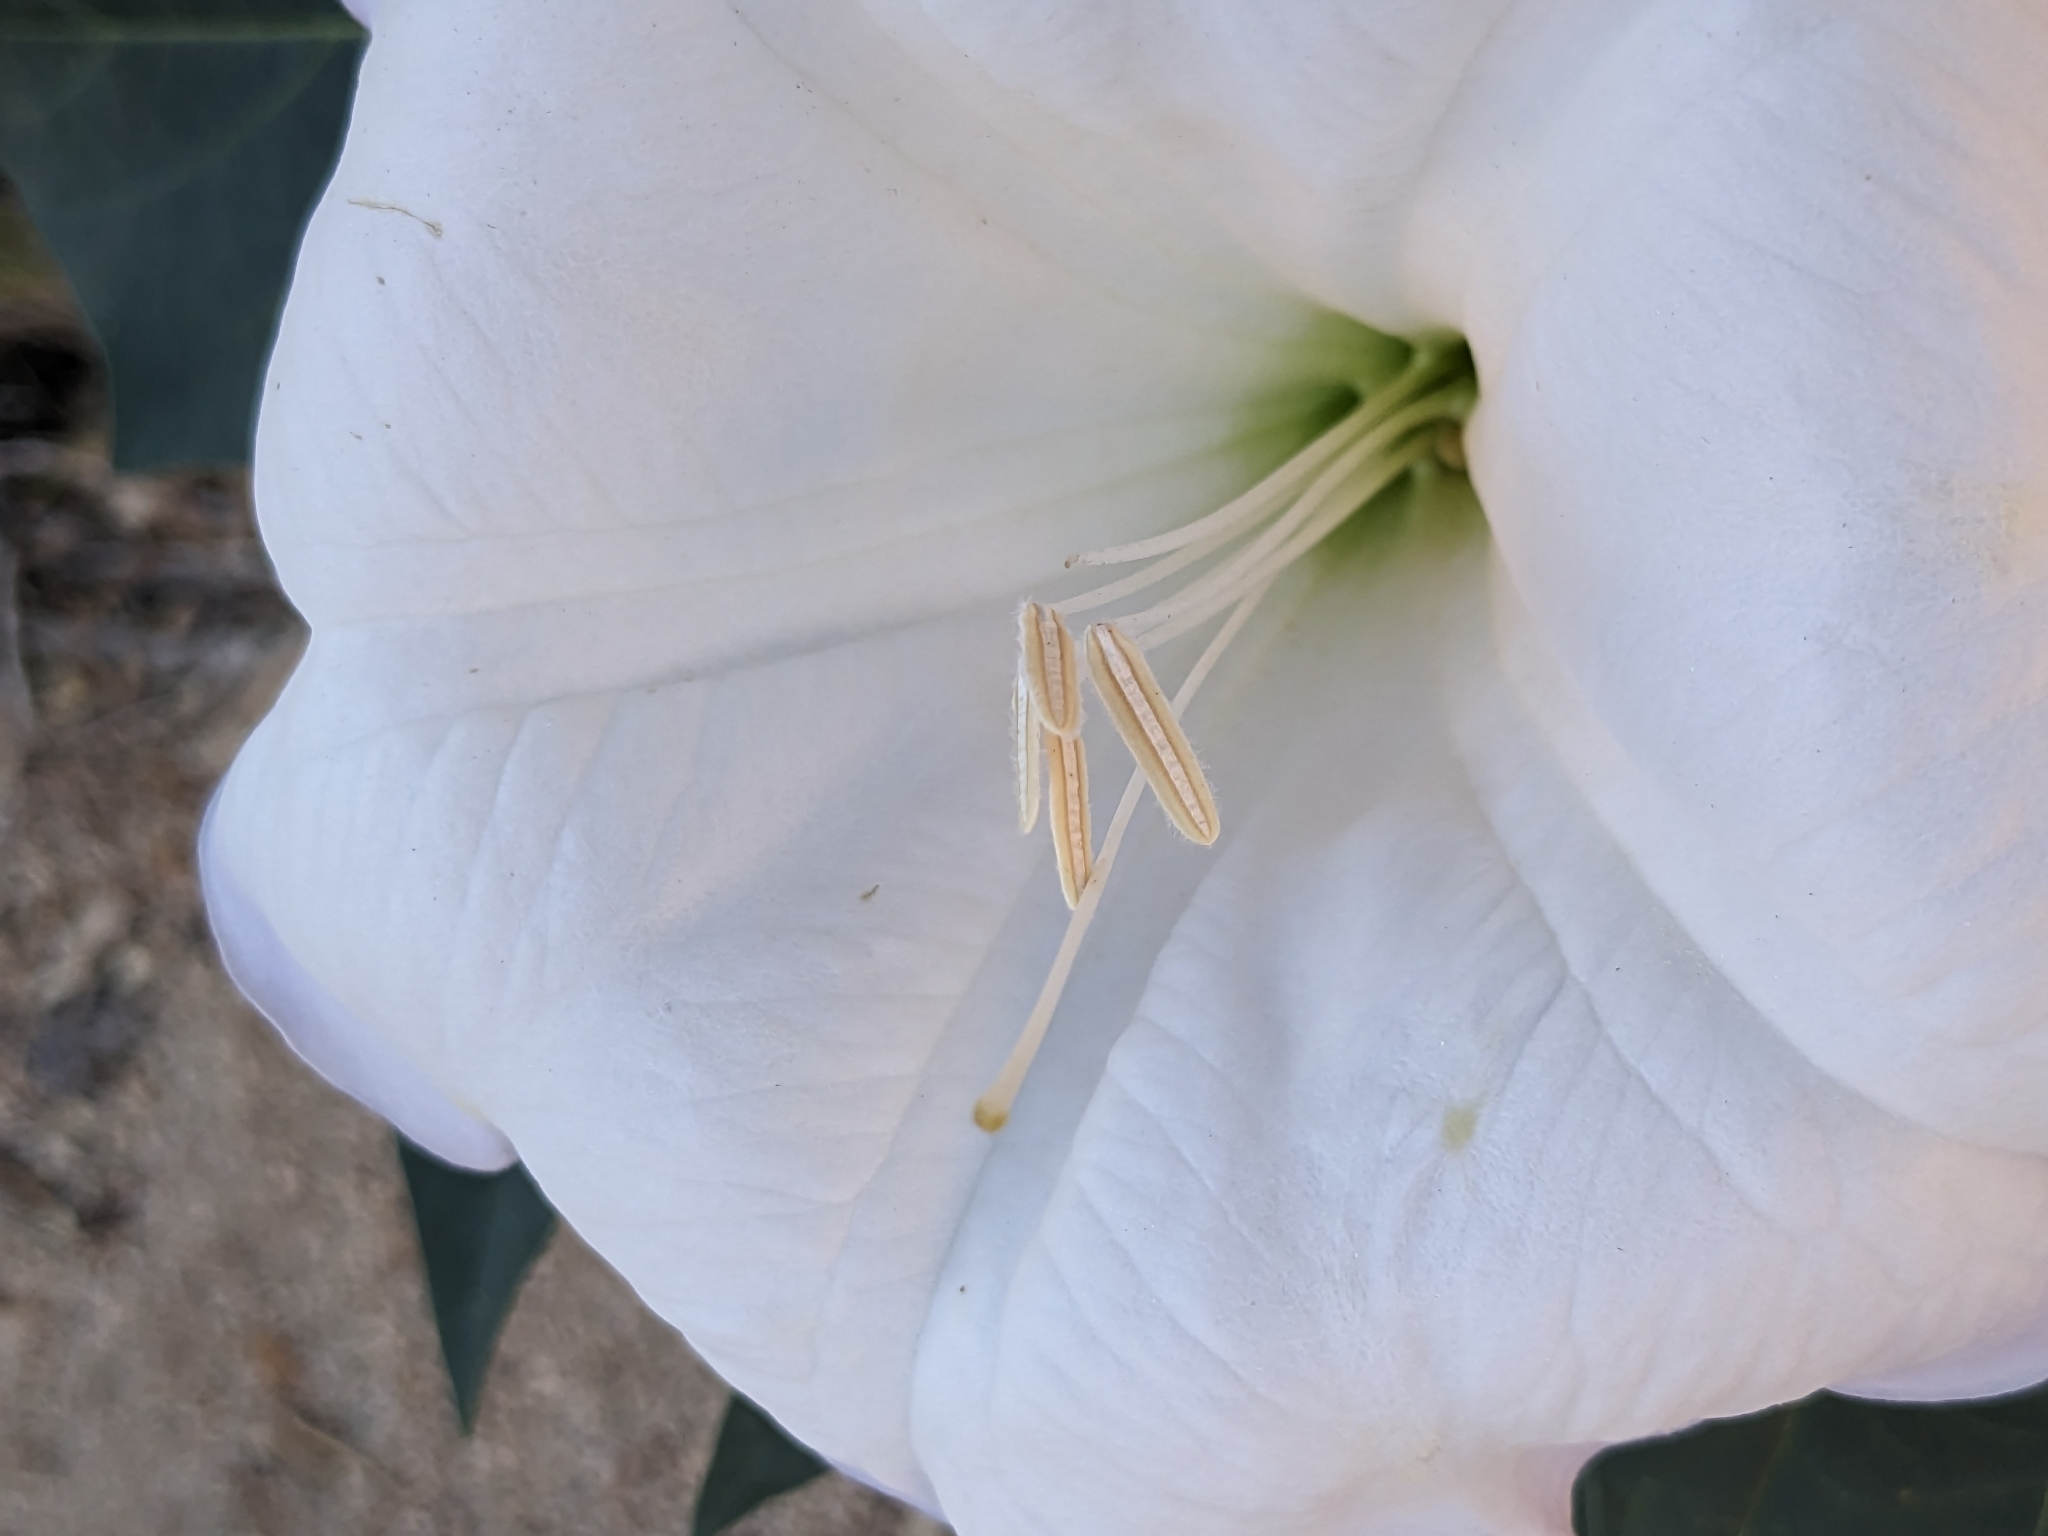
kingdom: Plantae
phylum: Tracheophyta
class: Magnoliopsida
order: Solanales
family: Solanaceae
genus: Datura
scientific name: Datura wrightii
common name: Sacred thorn-apple
